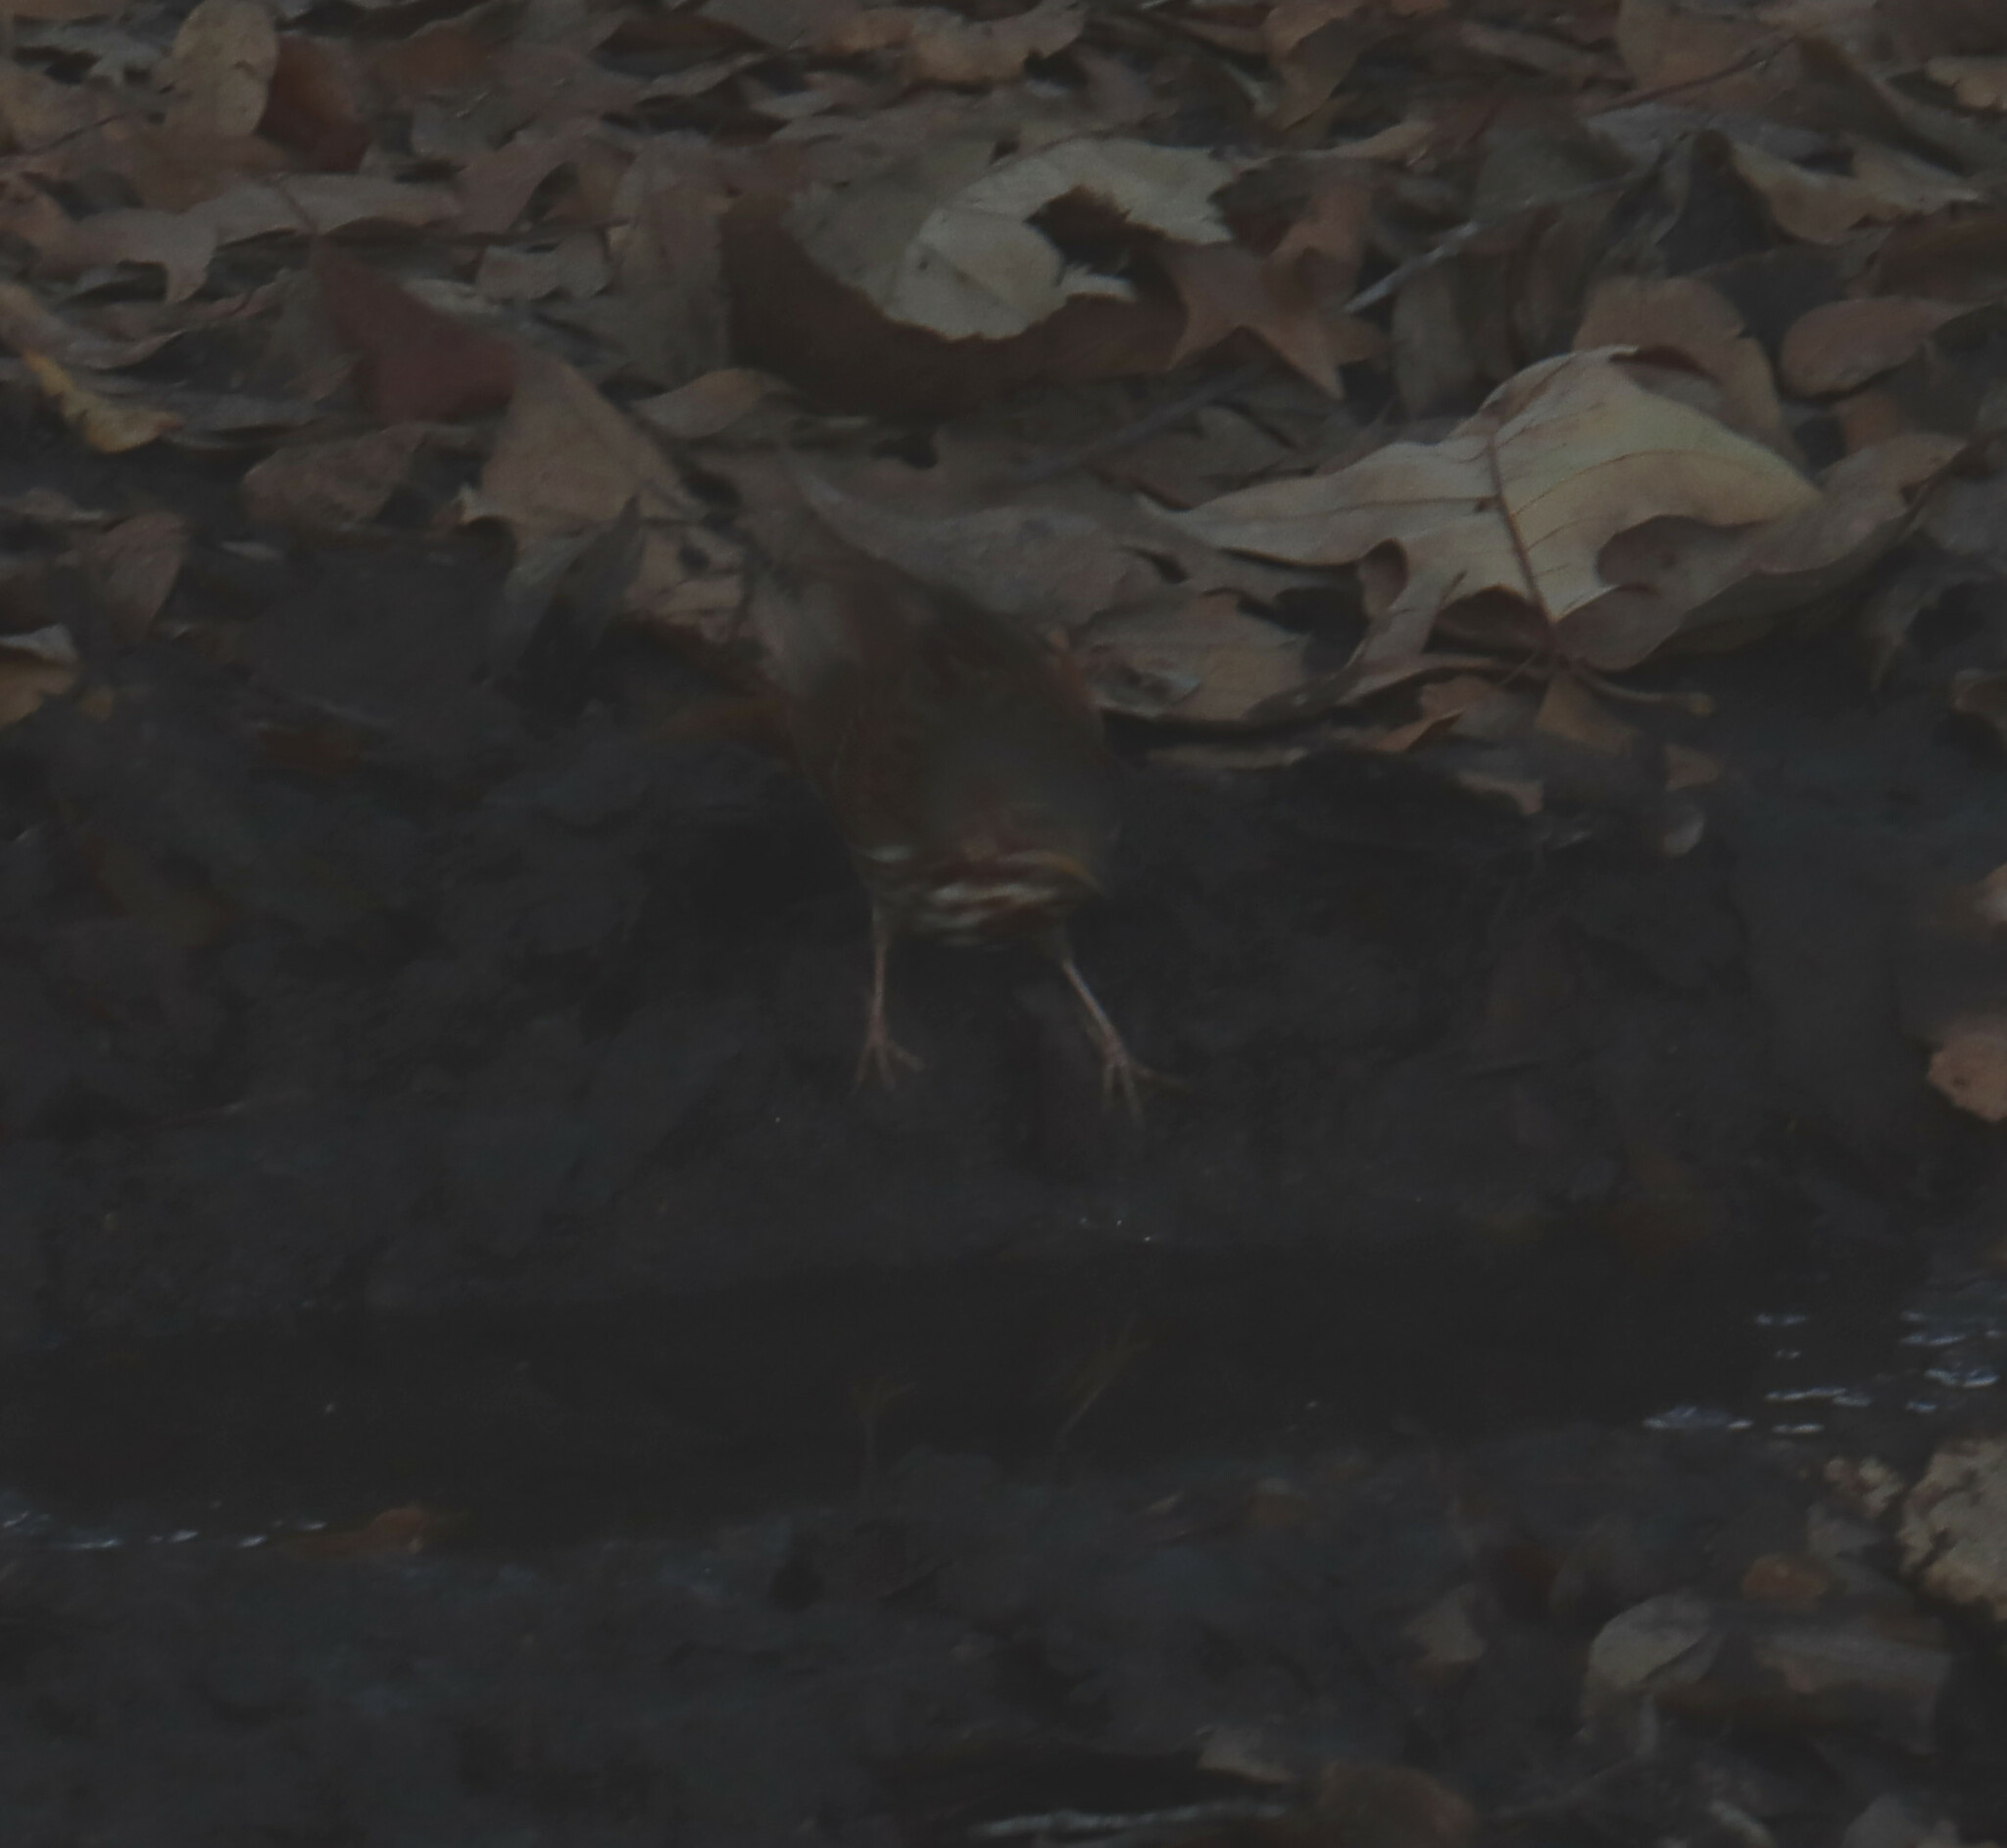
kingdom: Animalia
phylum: Chordata
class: Aves
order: Passeriformes
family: Passerellidae
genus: Passerella
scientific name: Passerella iliaca
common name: Fox sparrow
